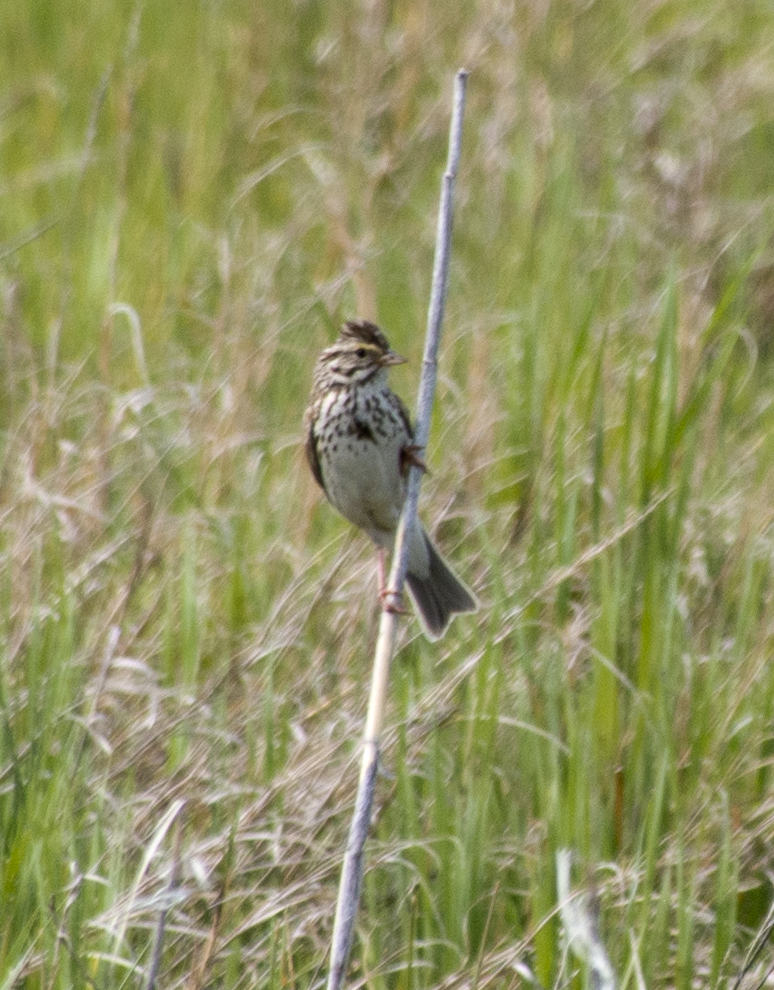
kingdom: Animalia
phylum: Chordata
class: Aves
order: Passeriformes
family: Passerellidae
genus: Passerculus
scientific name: Passerculus sandwichensis
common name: Savannah sparrow
